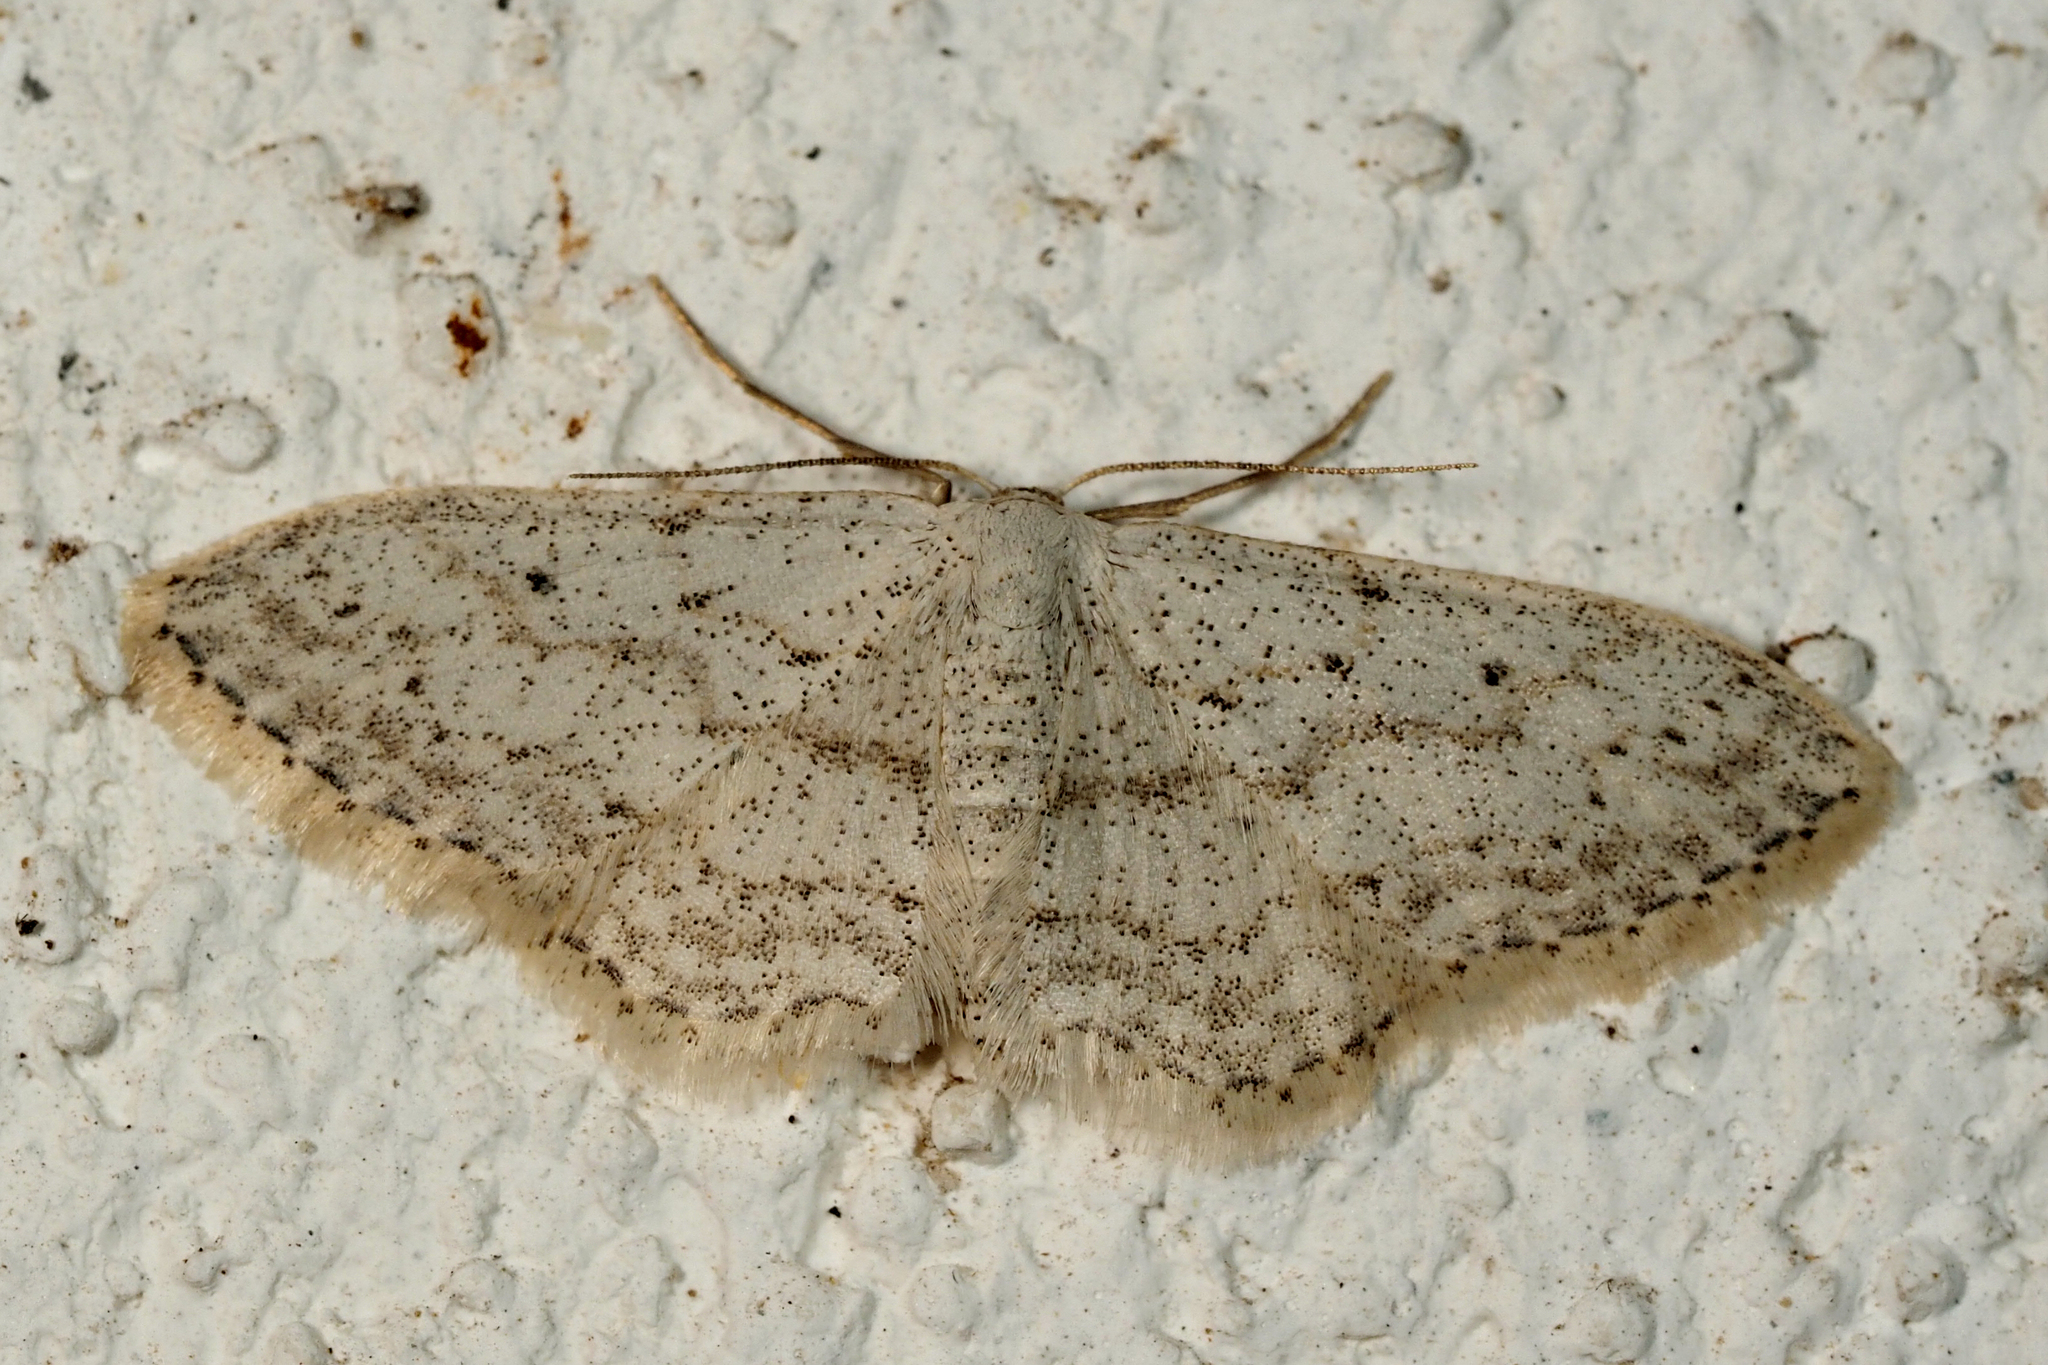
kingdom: Animalia
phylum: Arthropoda
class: Insecta
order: Lepidoptera
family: Geometridae
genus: Idaea
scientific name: Idaea seriata
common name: Small dusty wave
